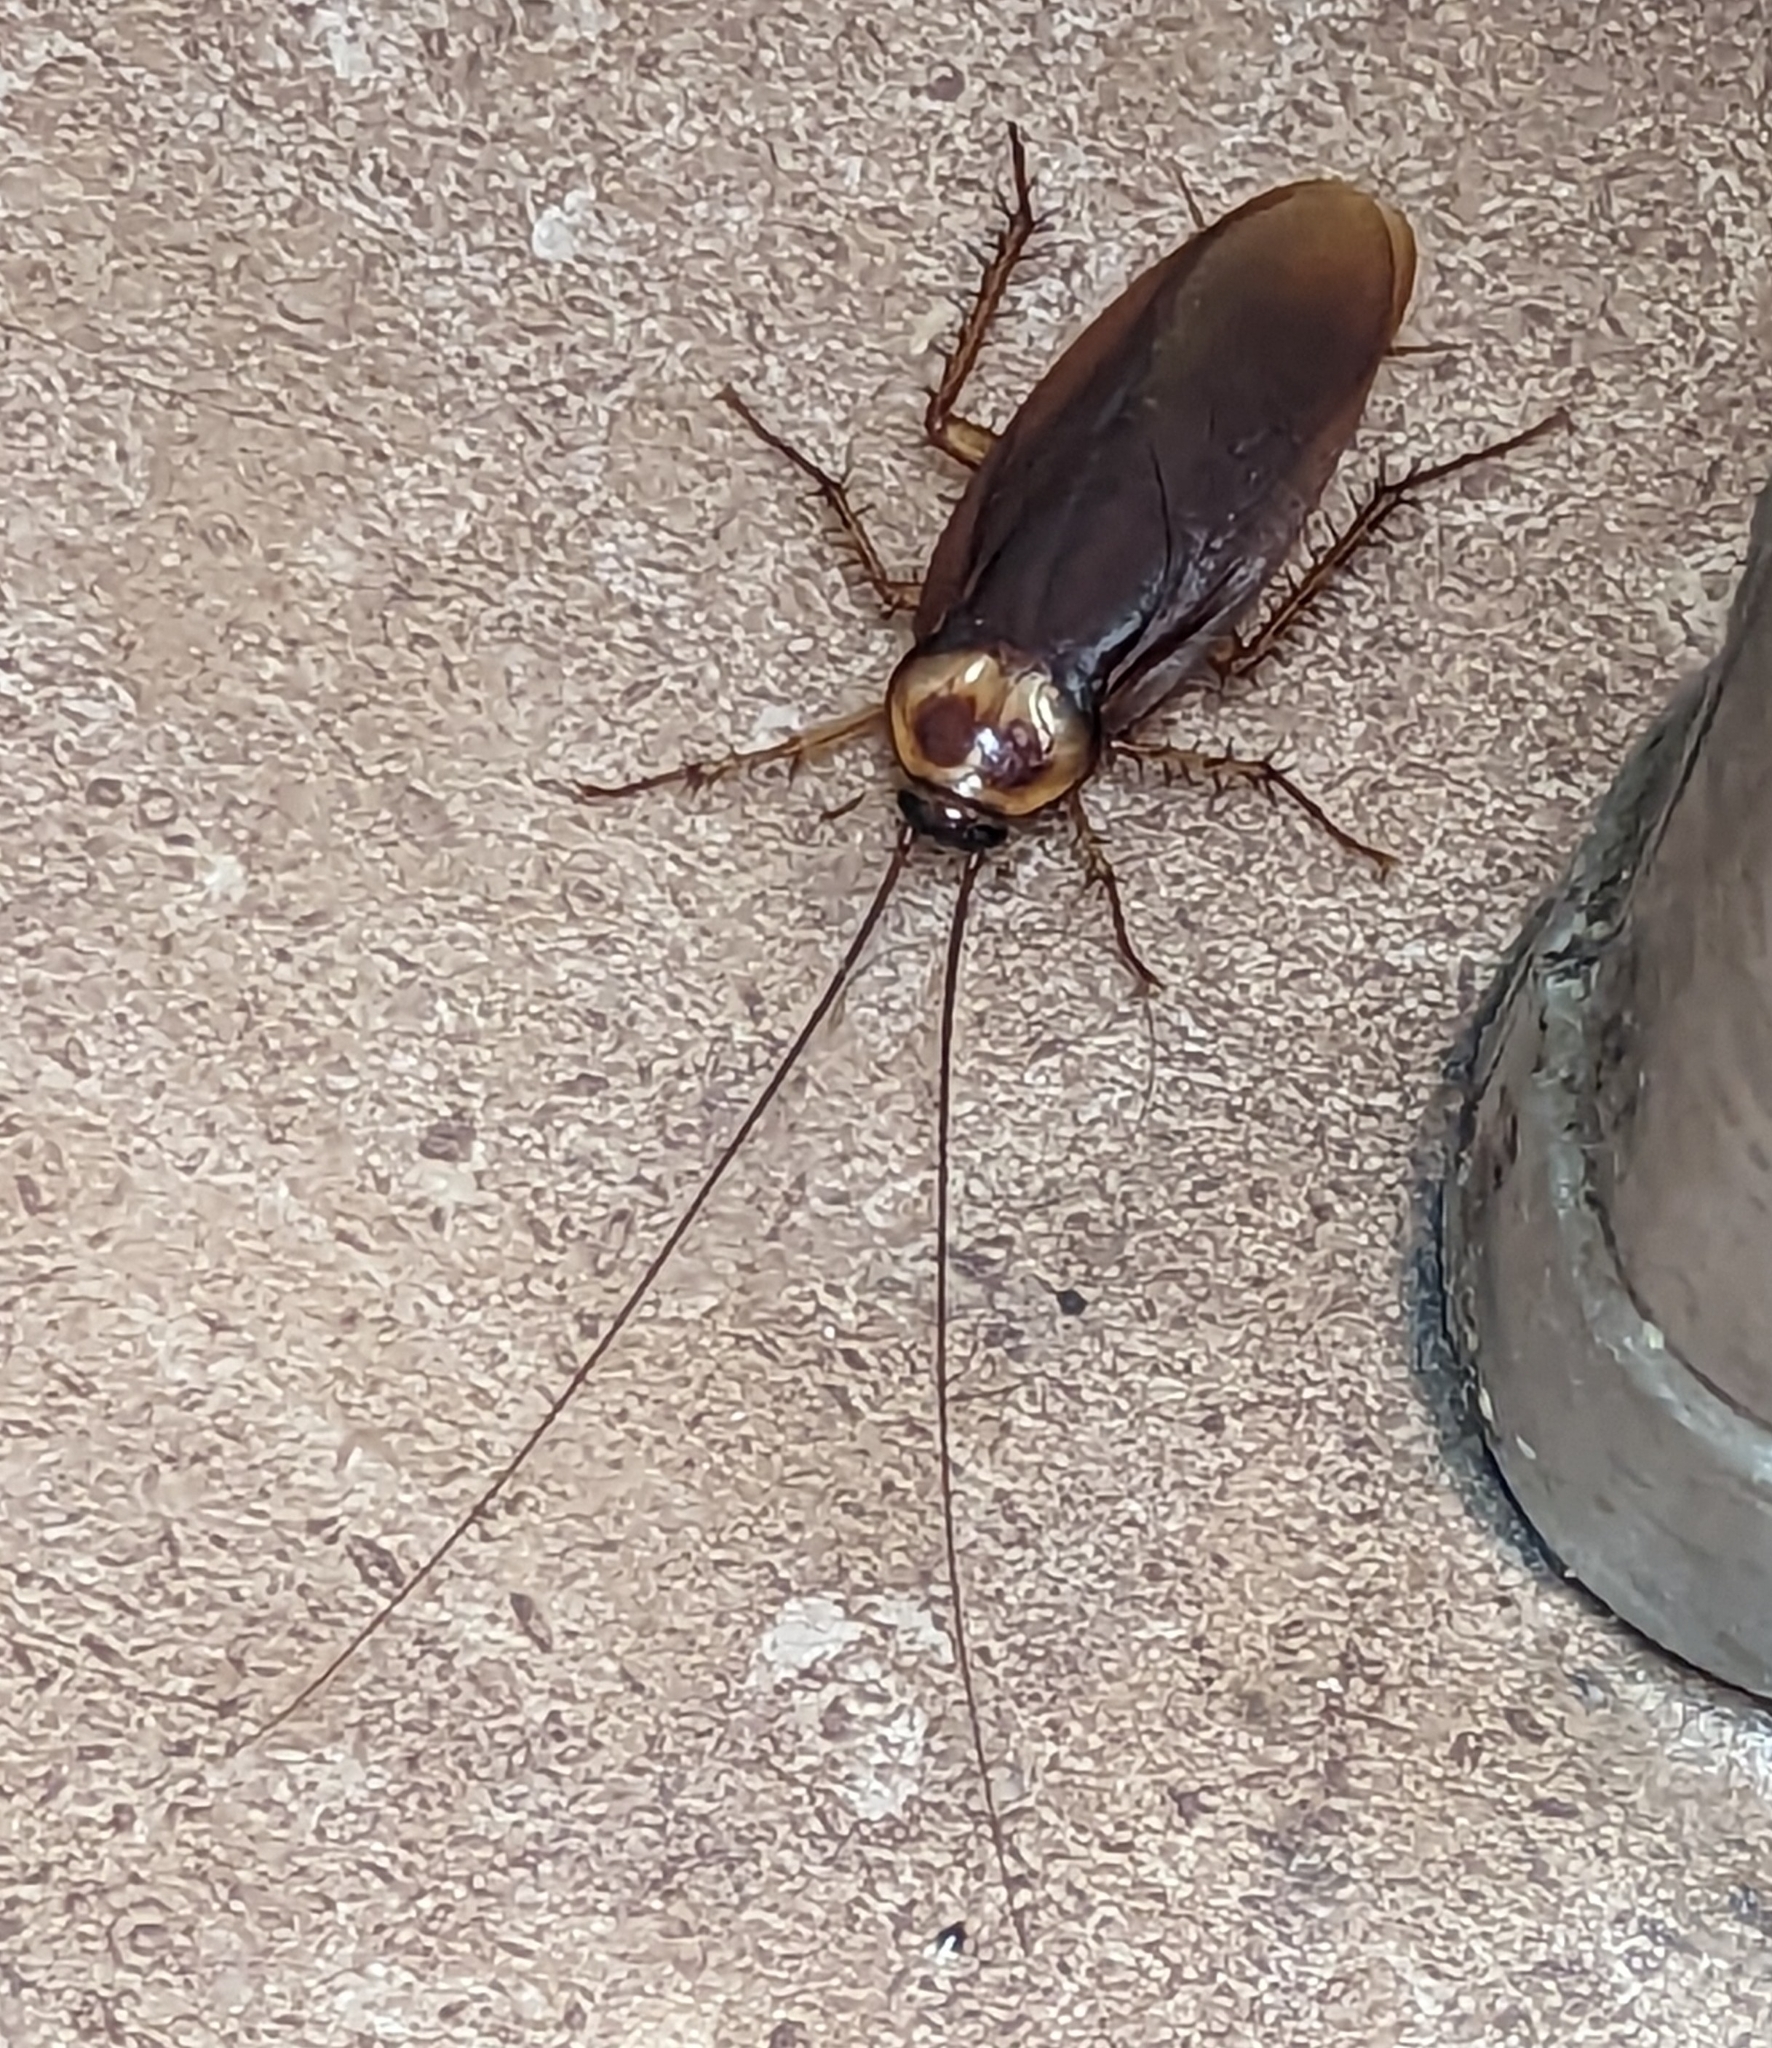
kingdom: Animalia
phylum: Arthropoda
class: Insecta
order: Blattodea
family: Blattidae
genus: Periplaneta
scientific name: Periplaneta americana
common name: American cockroach
